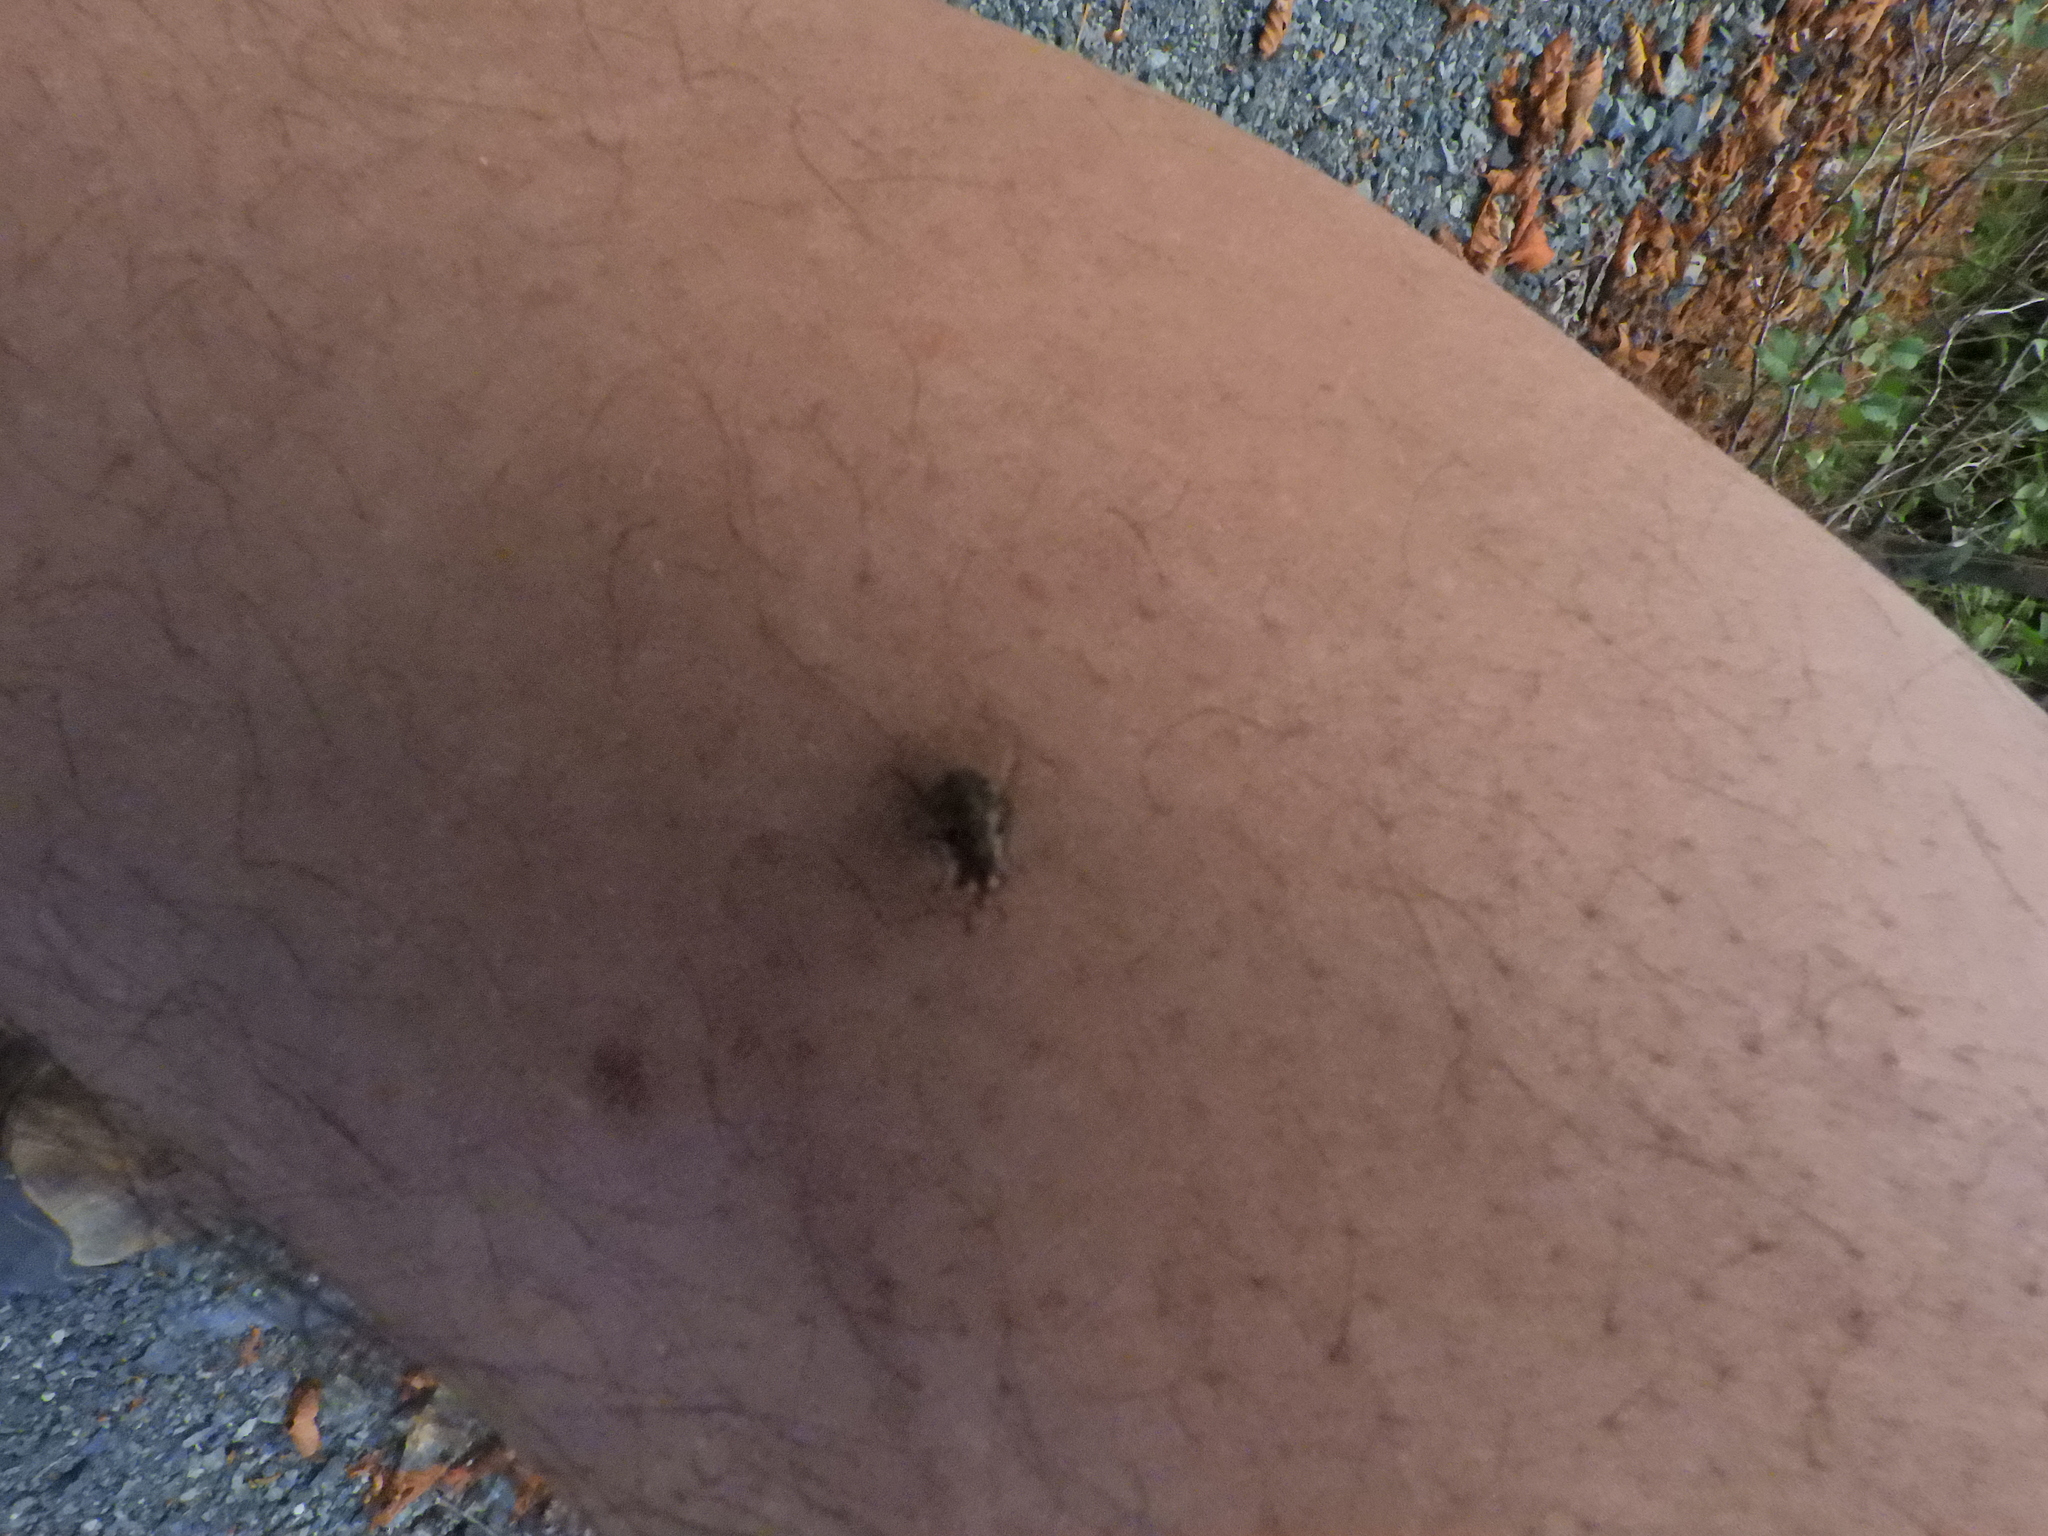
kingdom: Animalia
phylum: Arthropoda
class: Insecta
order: Diptera
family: Muscidae
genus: Stomoxys
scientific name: Stomoxys calcitrans
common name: Stable fly
